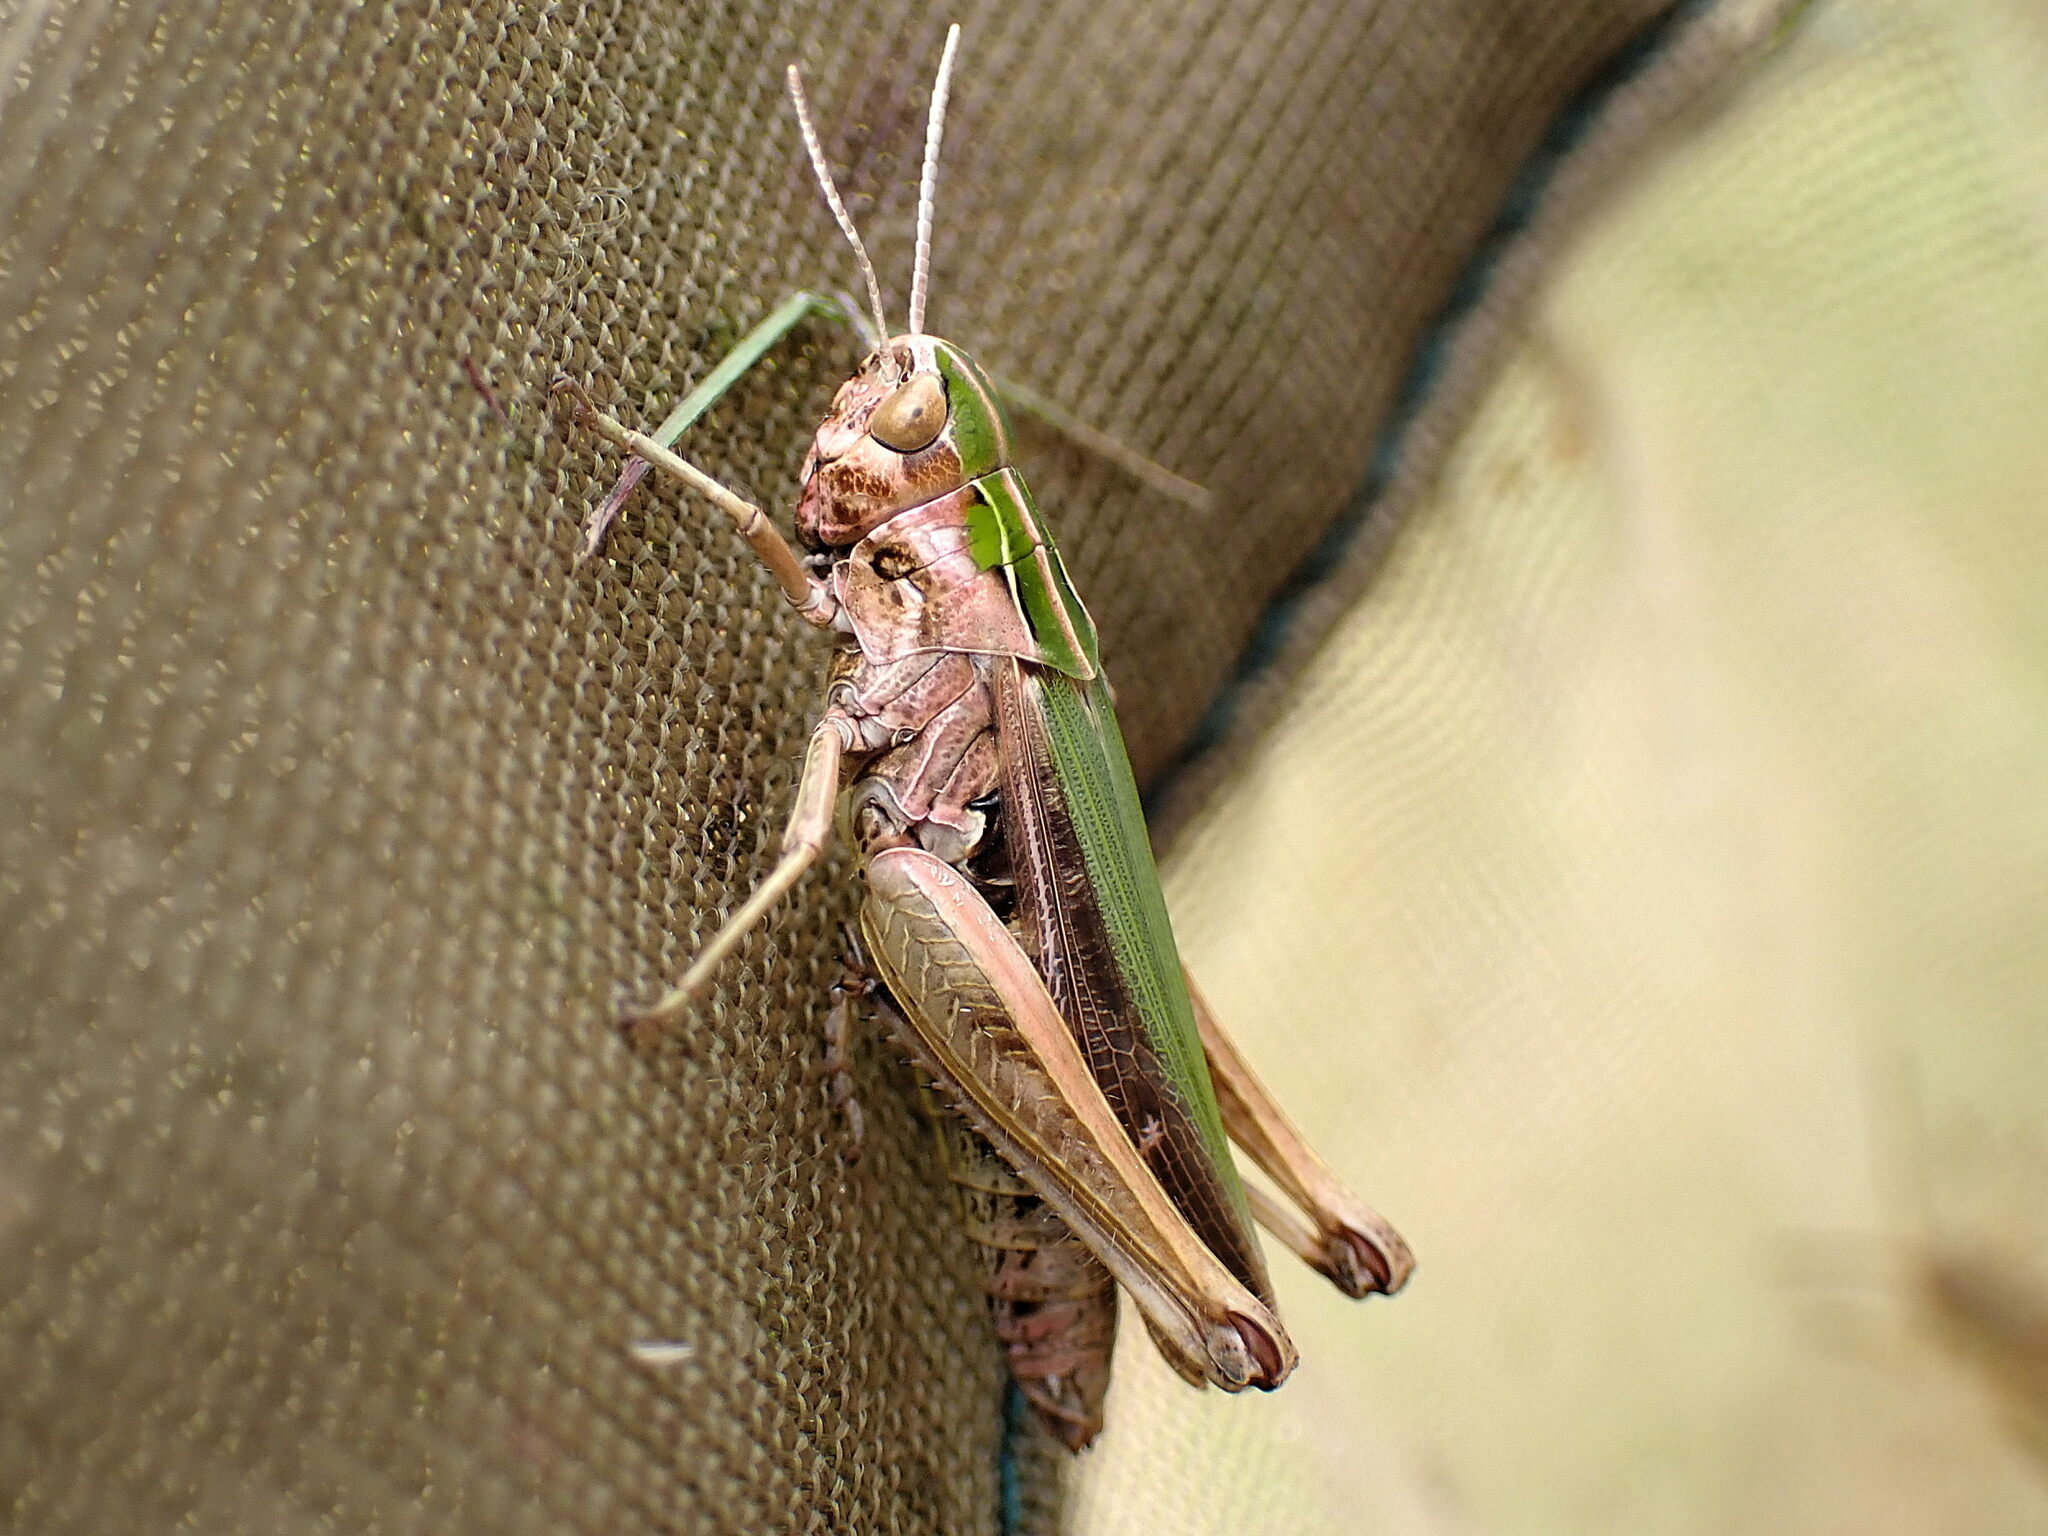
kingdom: Animalia
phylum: Arthropoda
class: Insecta
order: Orthoptera
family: Acrididae
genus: Omocestus
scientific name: Omocestus viridulus
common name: Common green grasshopper
